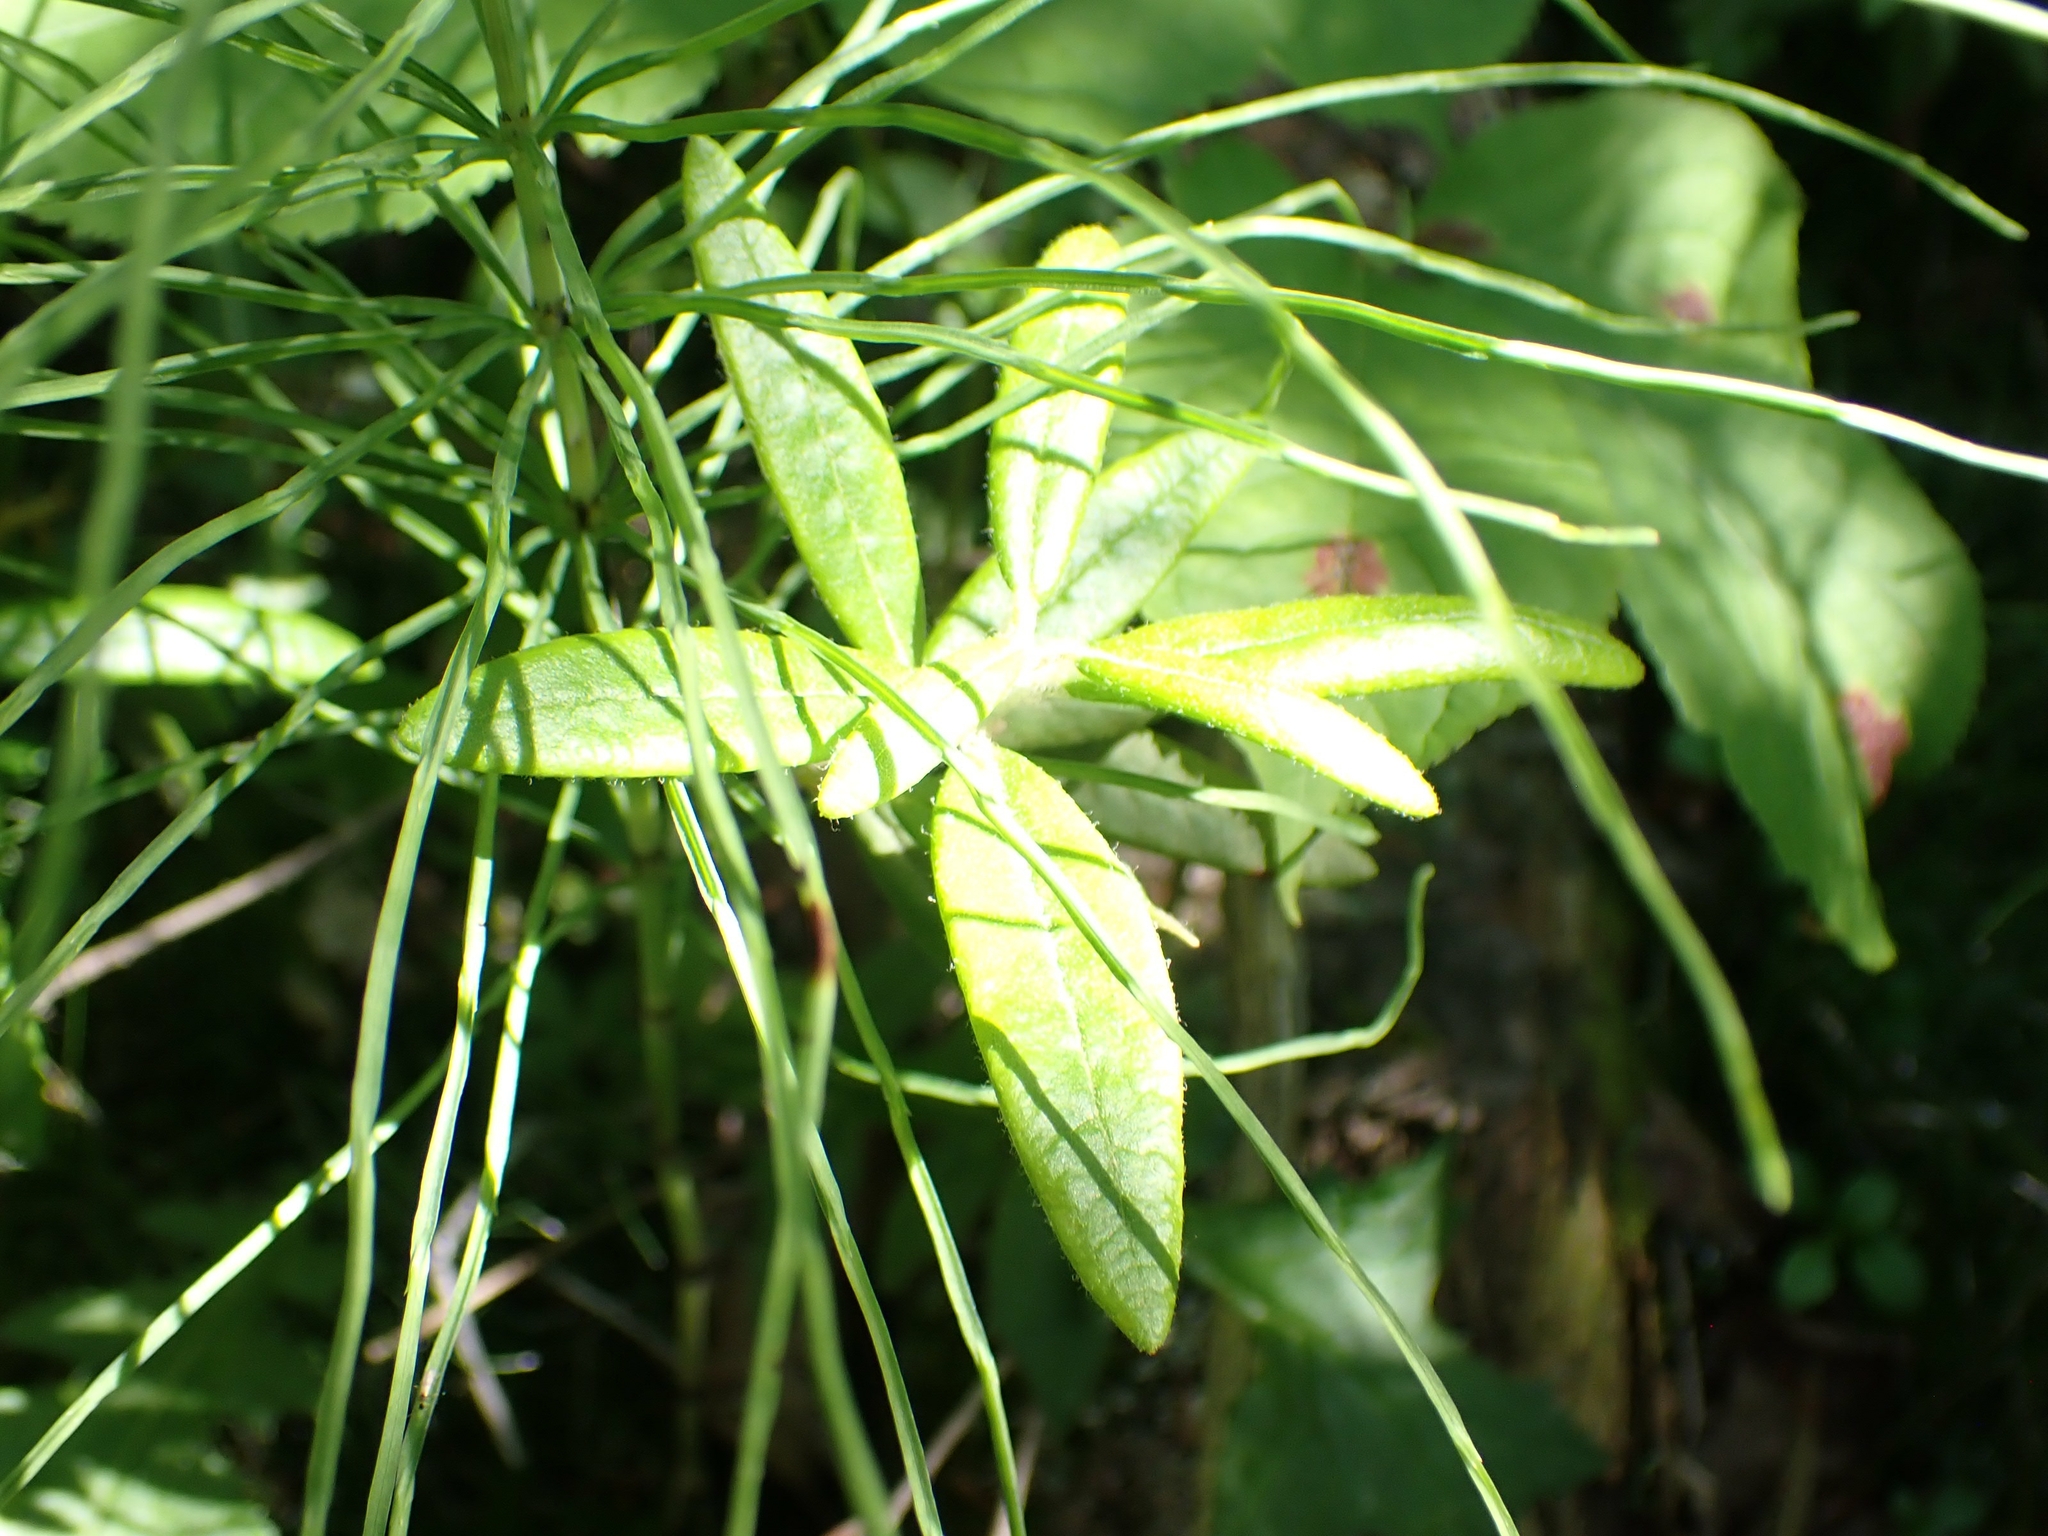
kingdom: Plantae
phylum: Tracheophyta
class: Magnoliopsida
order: Ericales
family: Ericaceae
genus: Rhododendron
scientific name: Rhododendron groenlandicum
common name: Bog labrador tea
